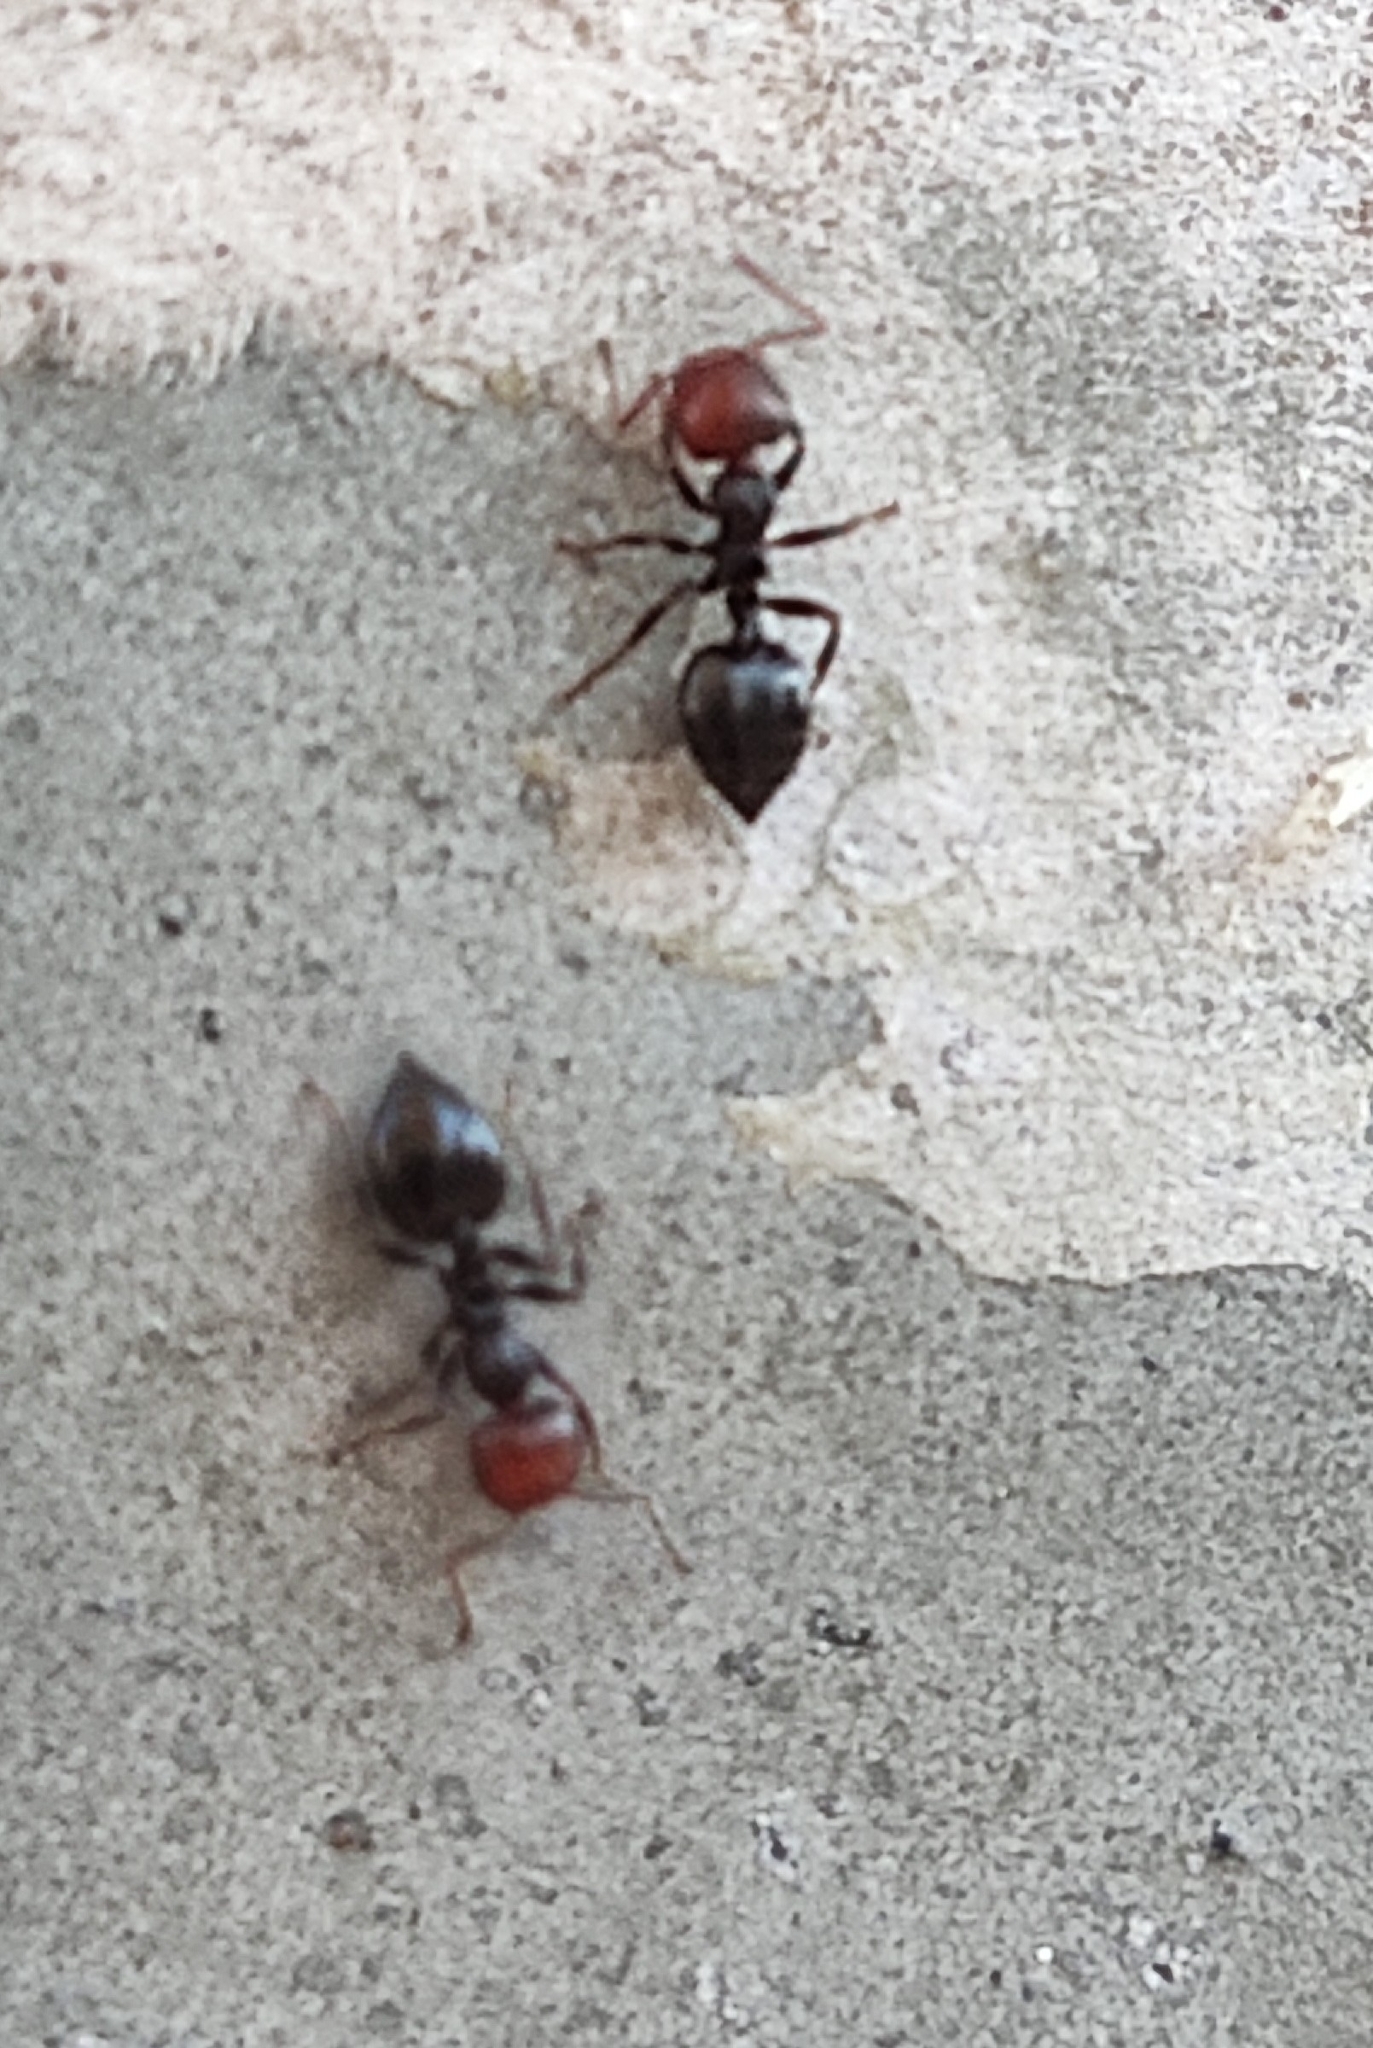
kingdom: Animalia
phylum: Arthropoda
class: Insecta
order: Hymenoptera
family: Formicidae
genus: Crematogaster
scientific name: Crematogaster scutellaris
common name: Fourmi du liège
